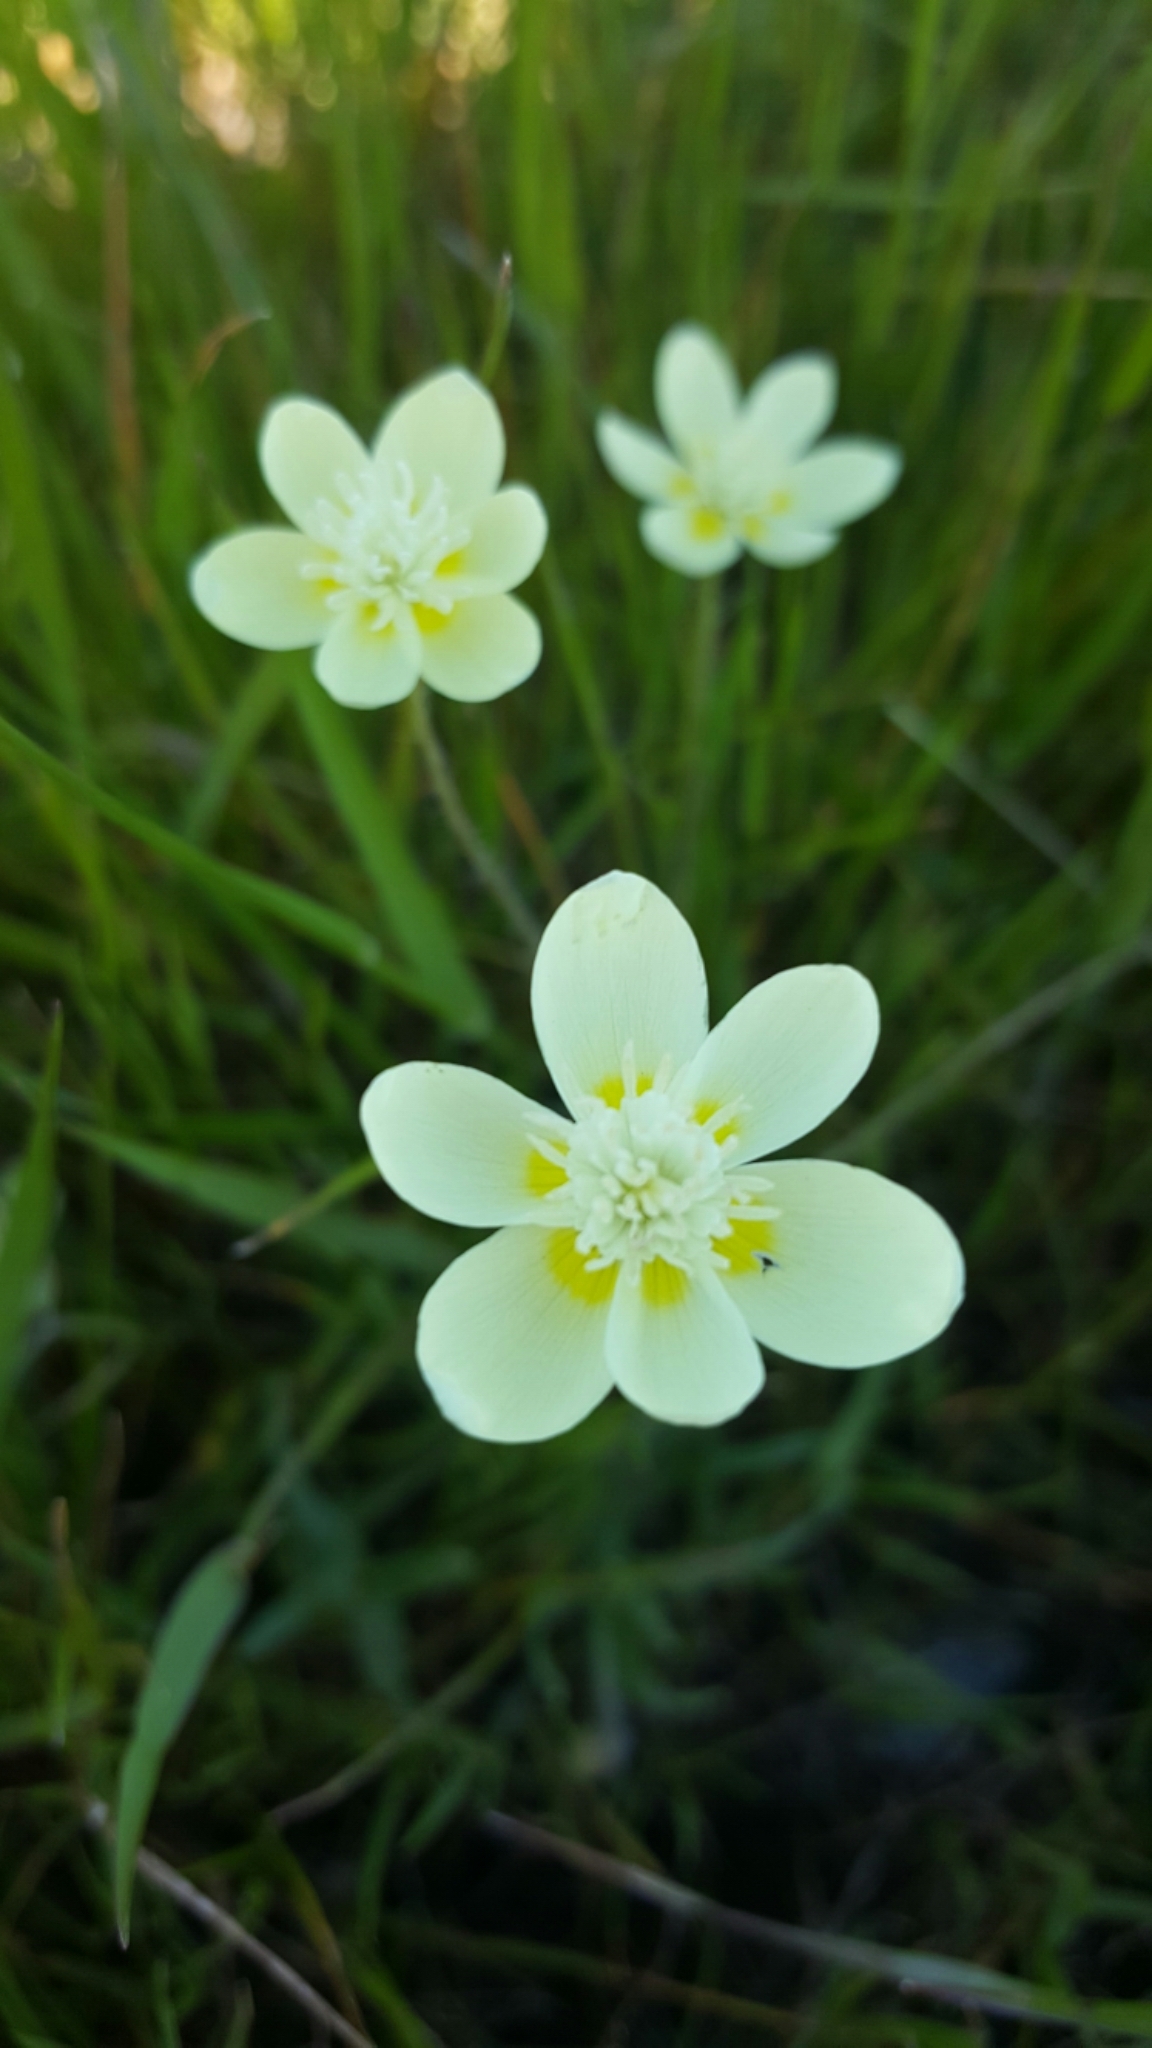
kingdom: Plantae
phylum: Tracheophyta
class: Magnoliopsida
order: Ranunculales
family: Papaveraceae
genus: Platystemon
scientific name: Platystemon californicus
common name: Cream-cups
